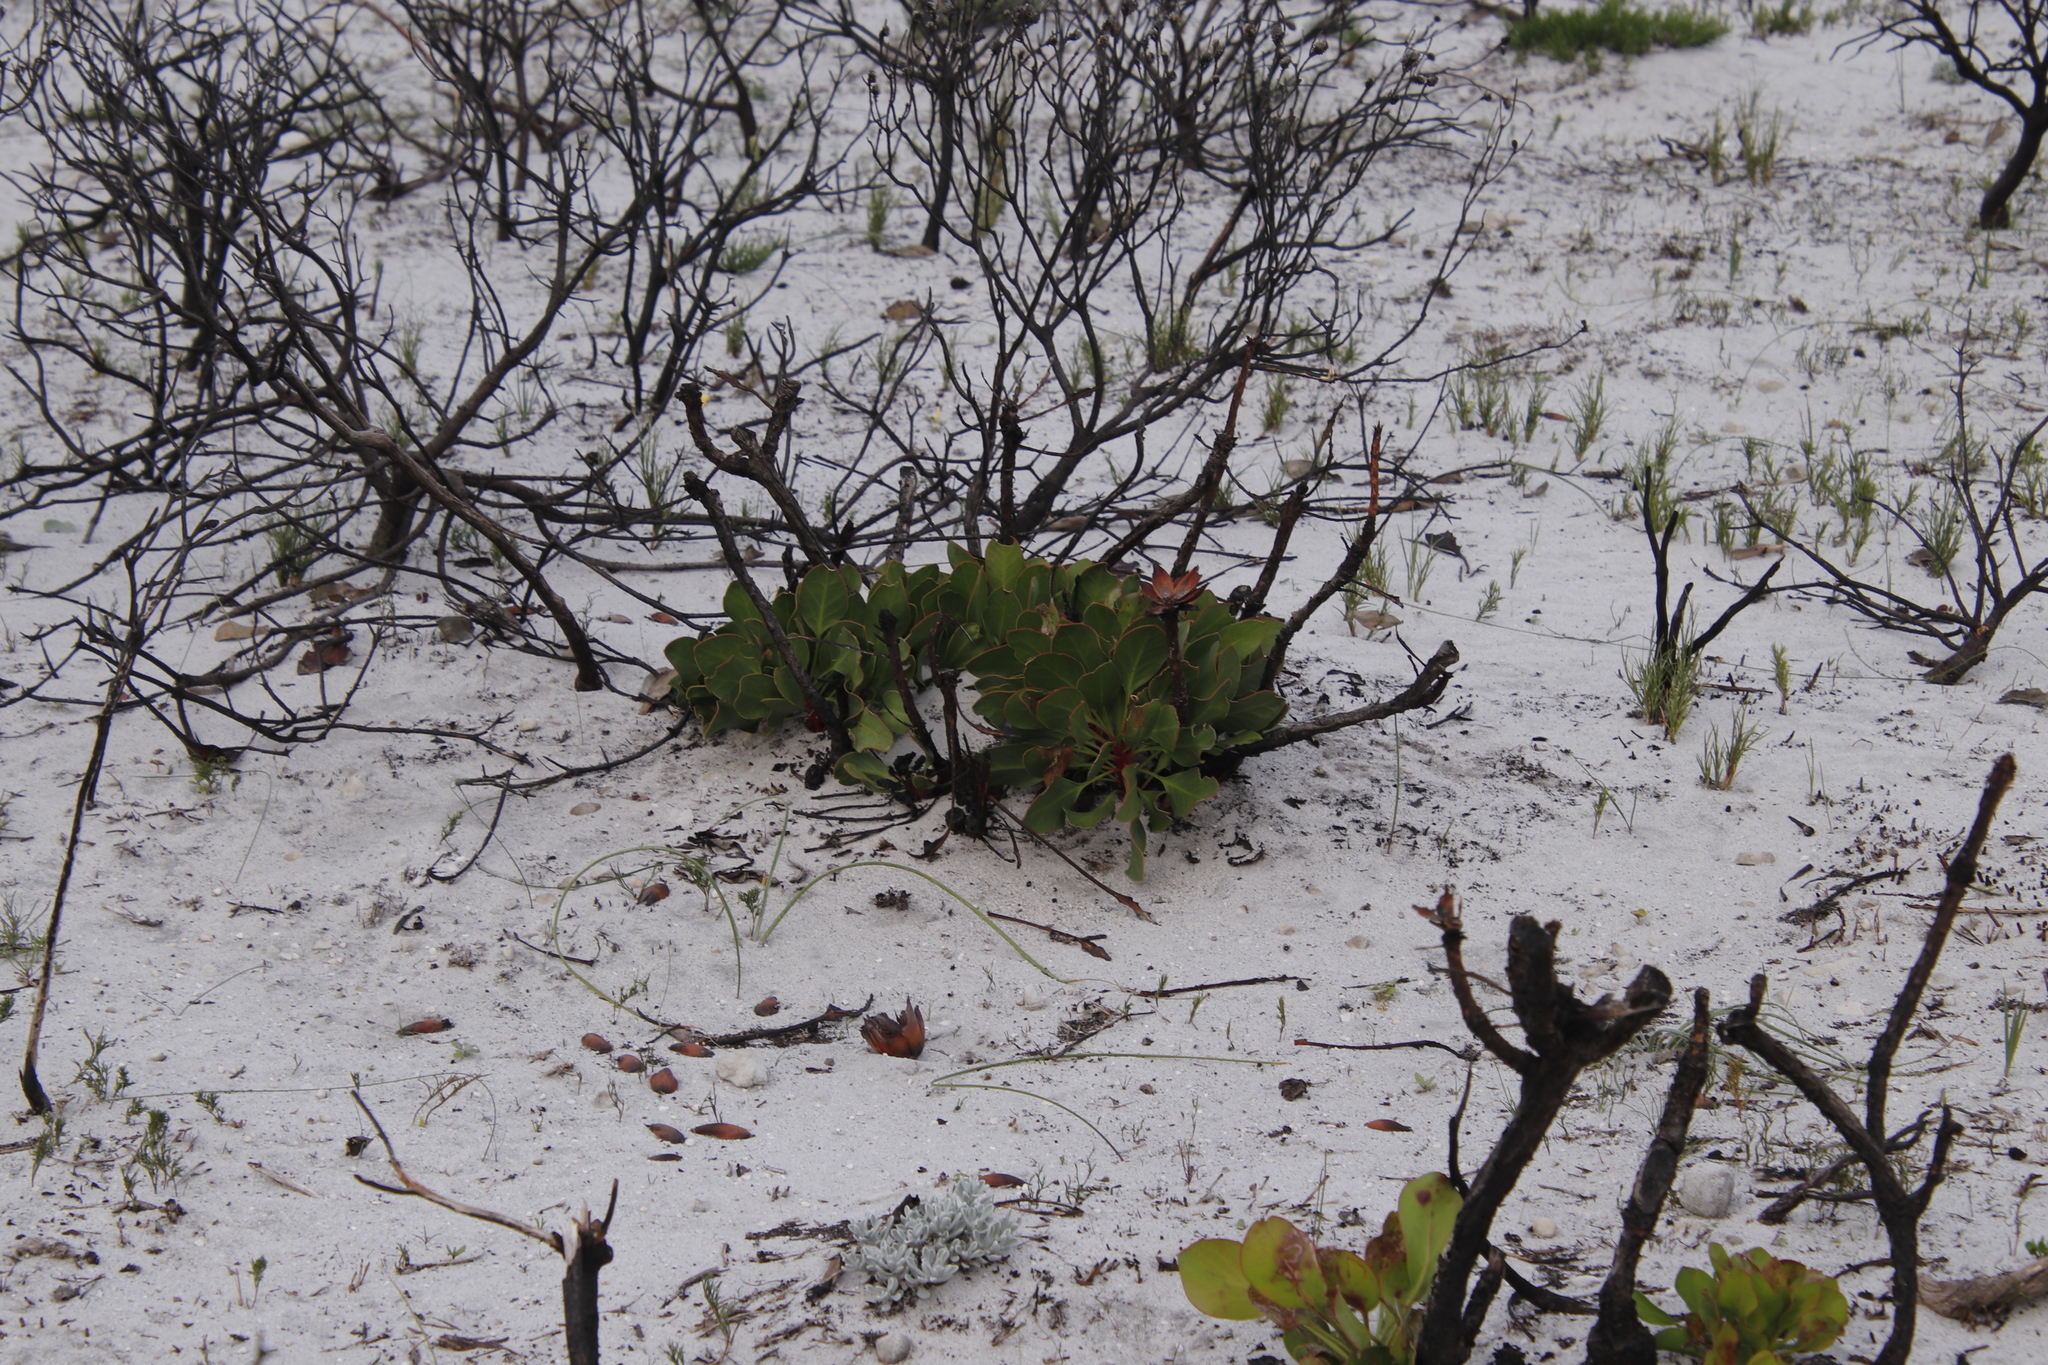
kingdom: Plantae
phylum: Tracheophyta
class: Magnoliopsida
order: Proteales
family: Proteaceae
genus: Protea
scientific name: Protea cynaroides
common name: King protea
